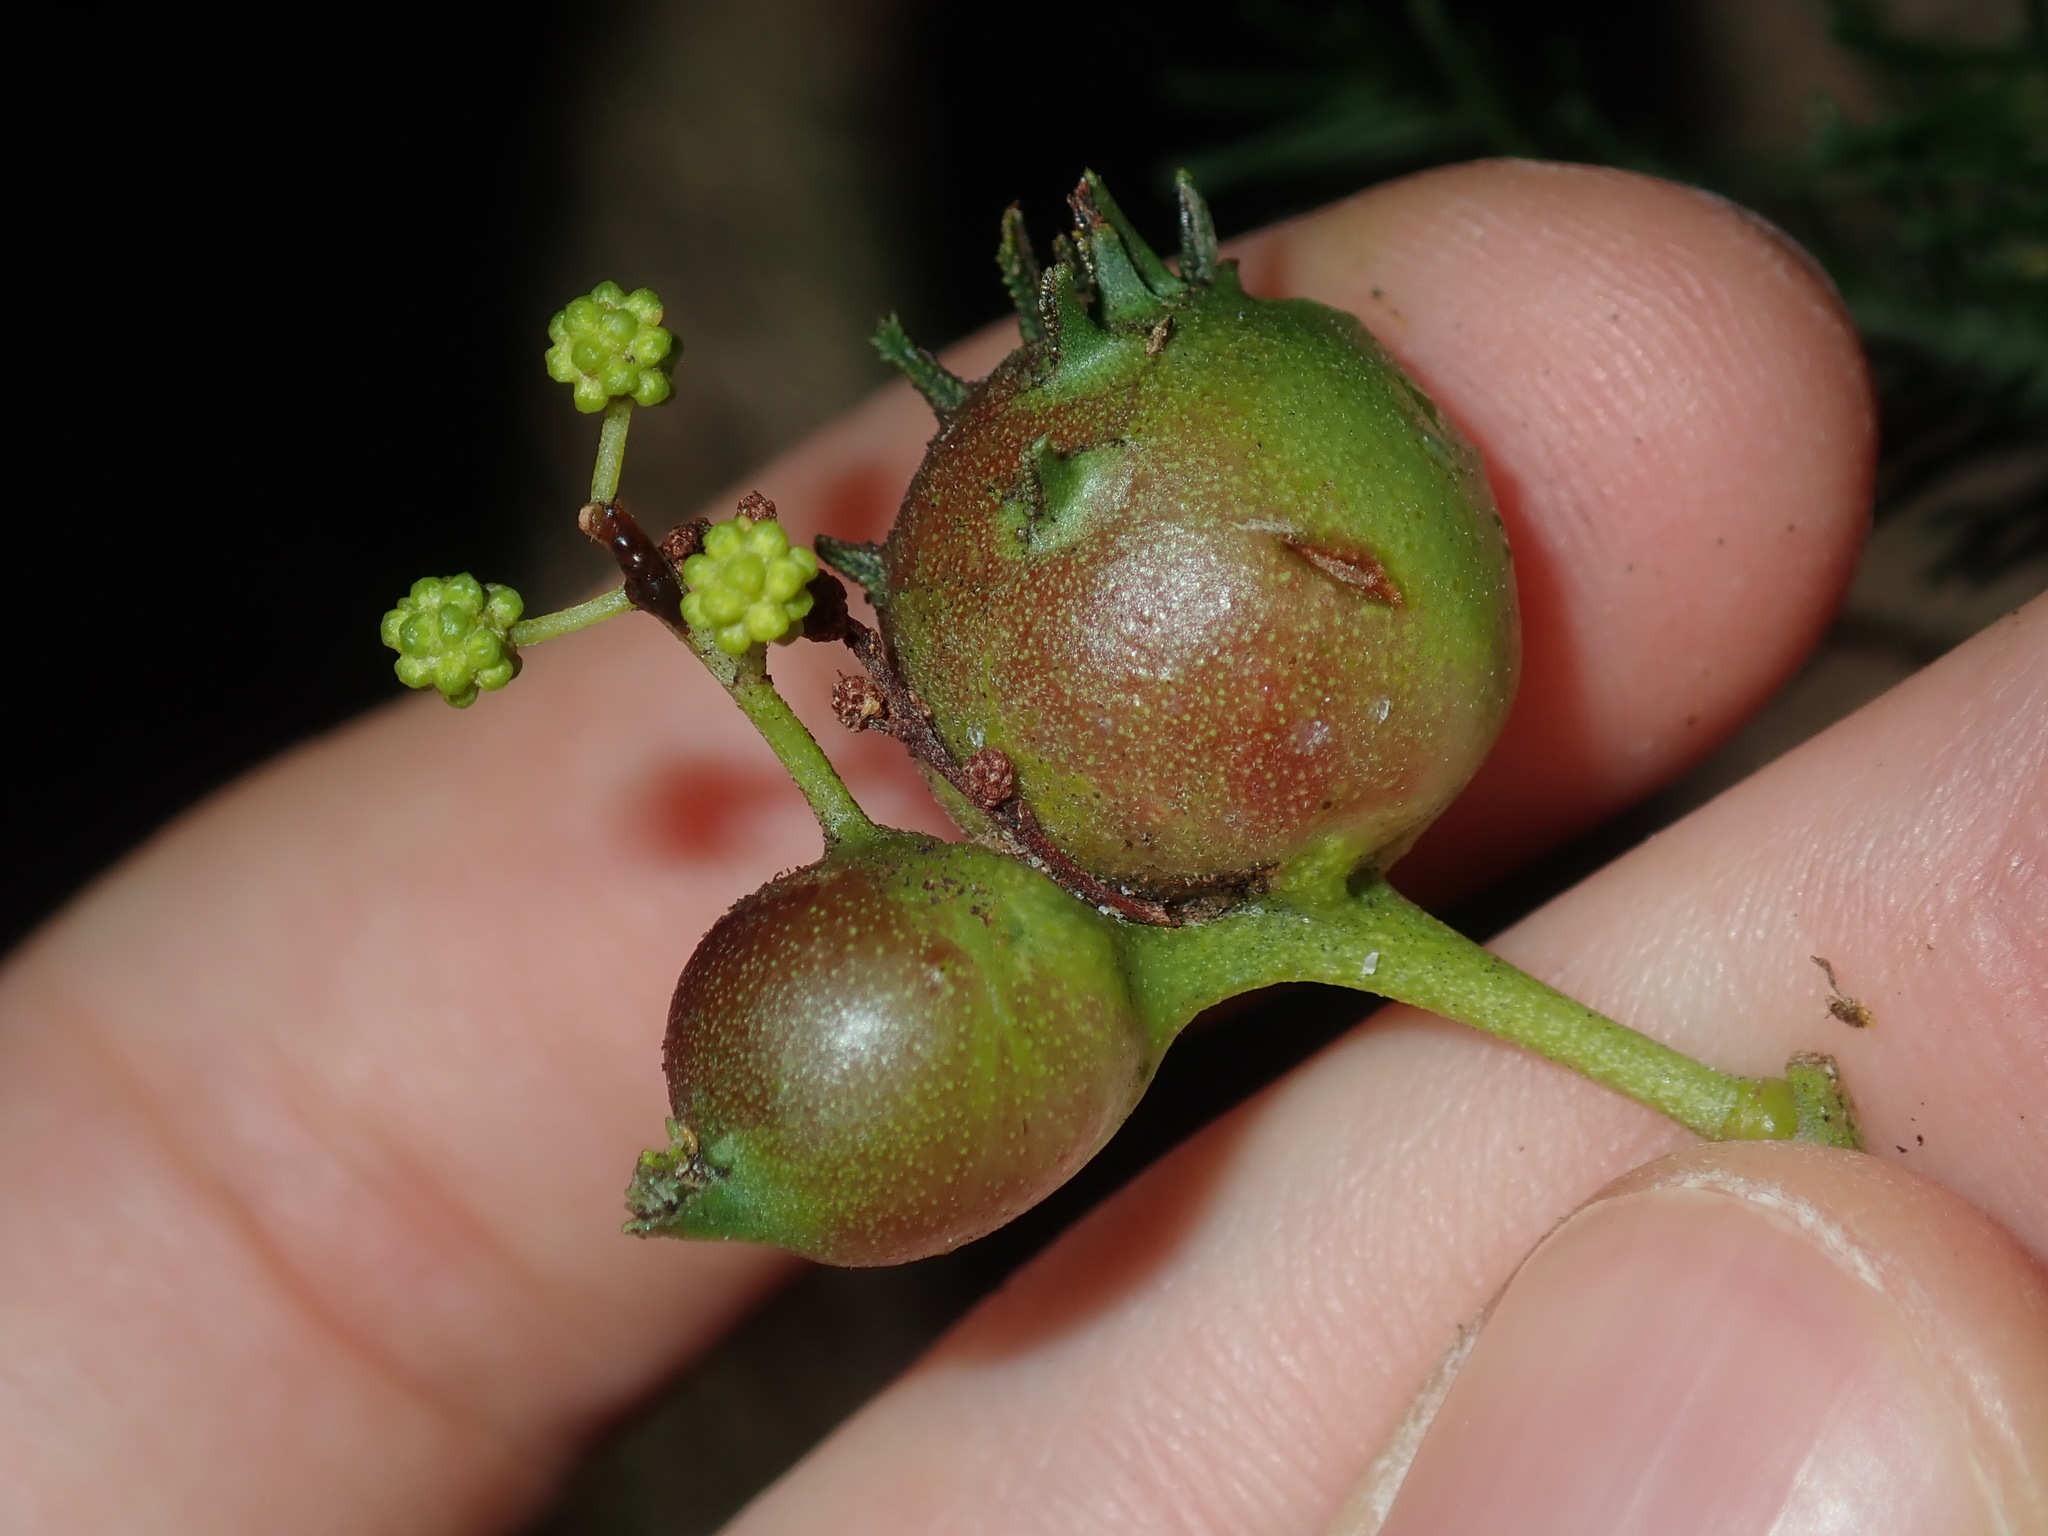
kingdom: Animalia
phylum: Arthropoda
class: Insecta
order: Hymenoptera
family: Pteromalidae
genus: Perilampella
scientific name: Perilampella hecataeus
